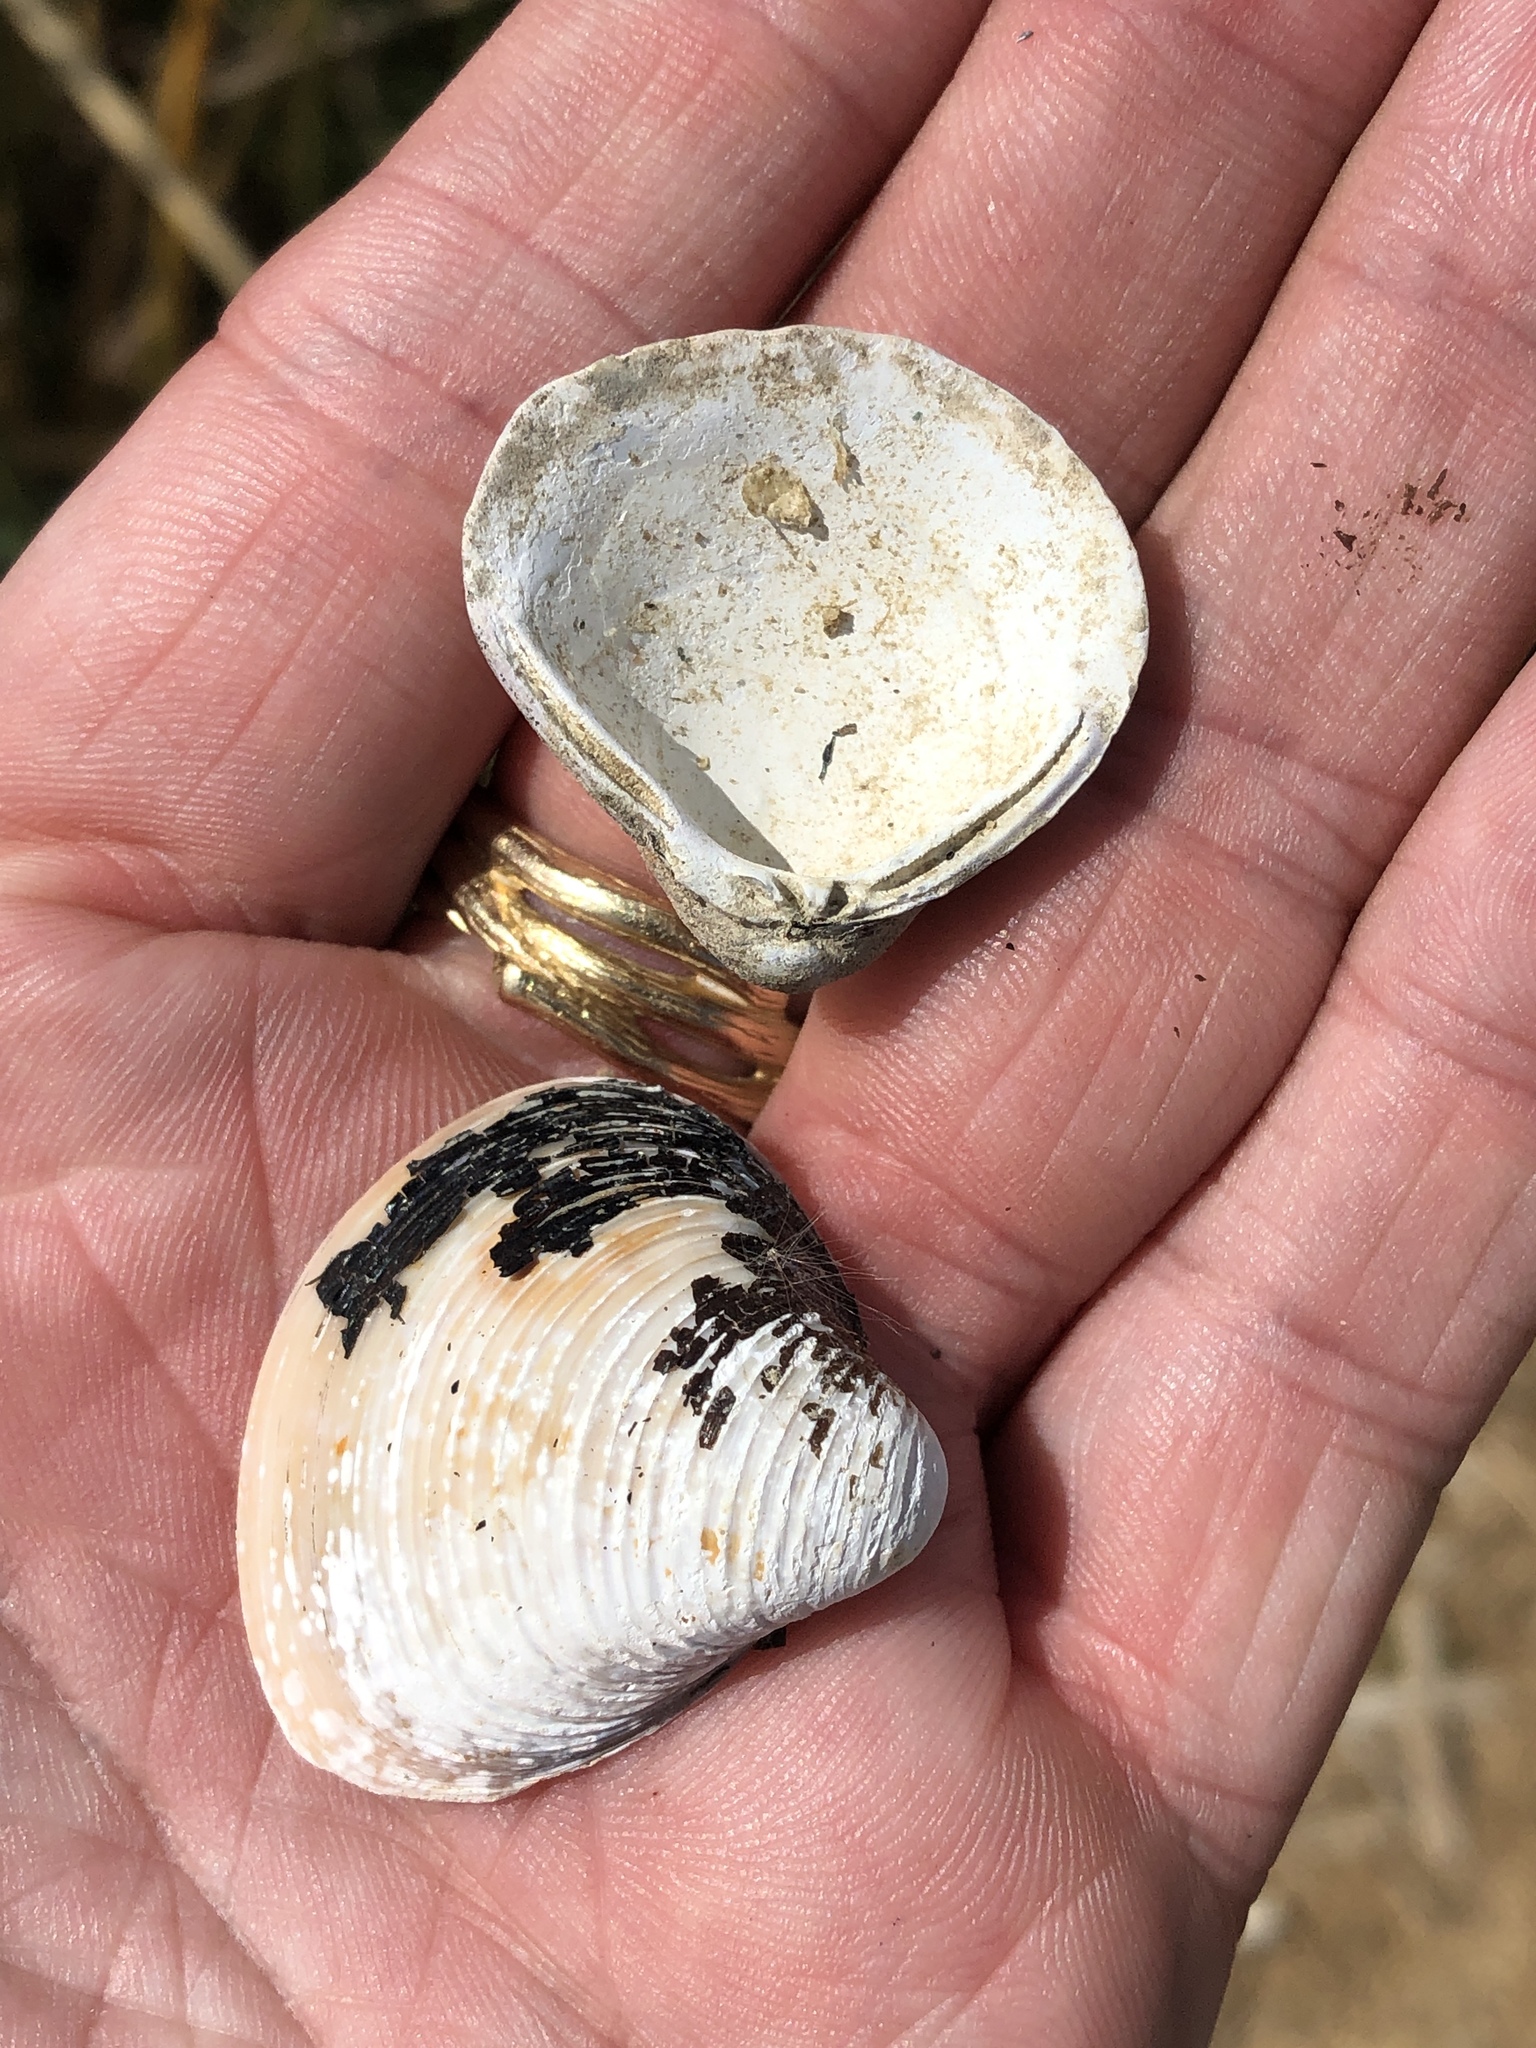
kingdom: Animalia
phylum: Mollusca
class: Bivalvia
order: Venerida
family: Cyrenidae
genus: Corbicula
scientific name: Corbicula fluminea
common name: Asian clam
